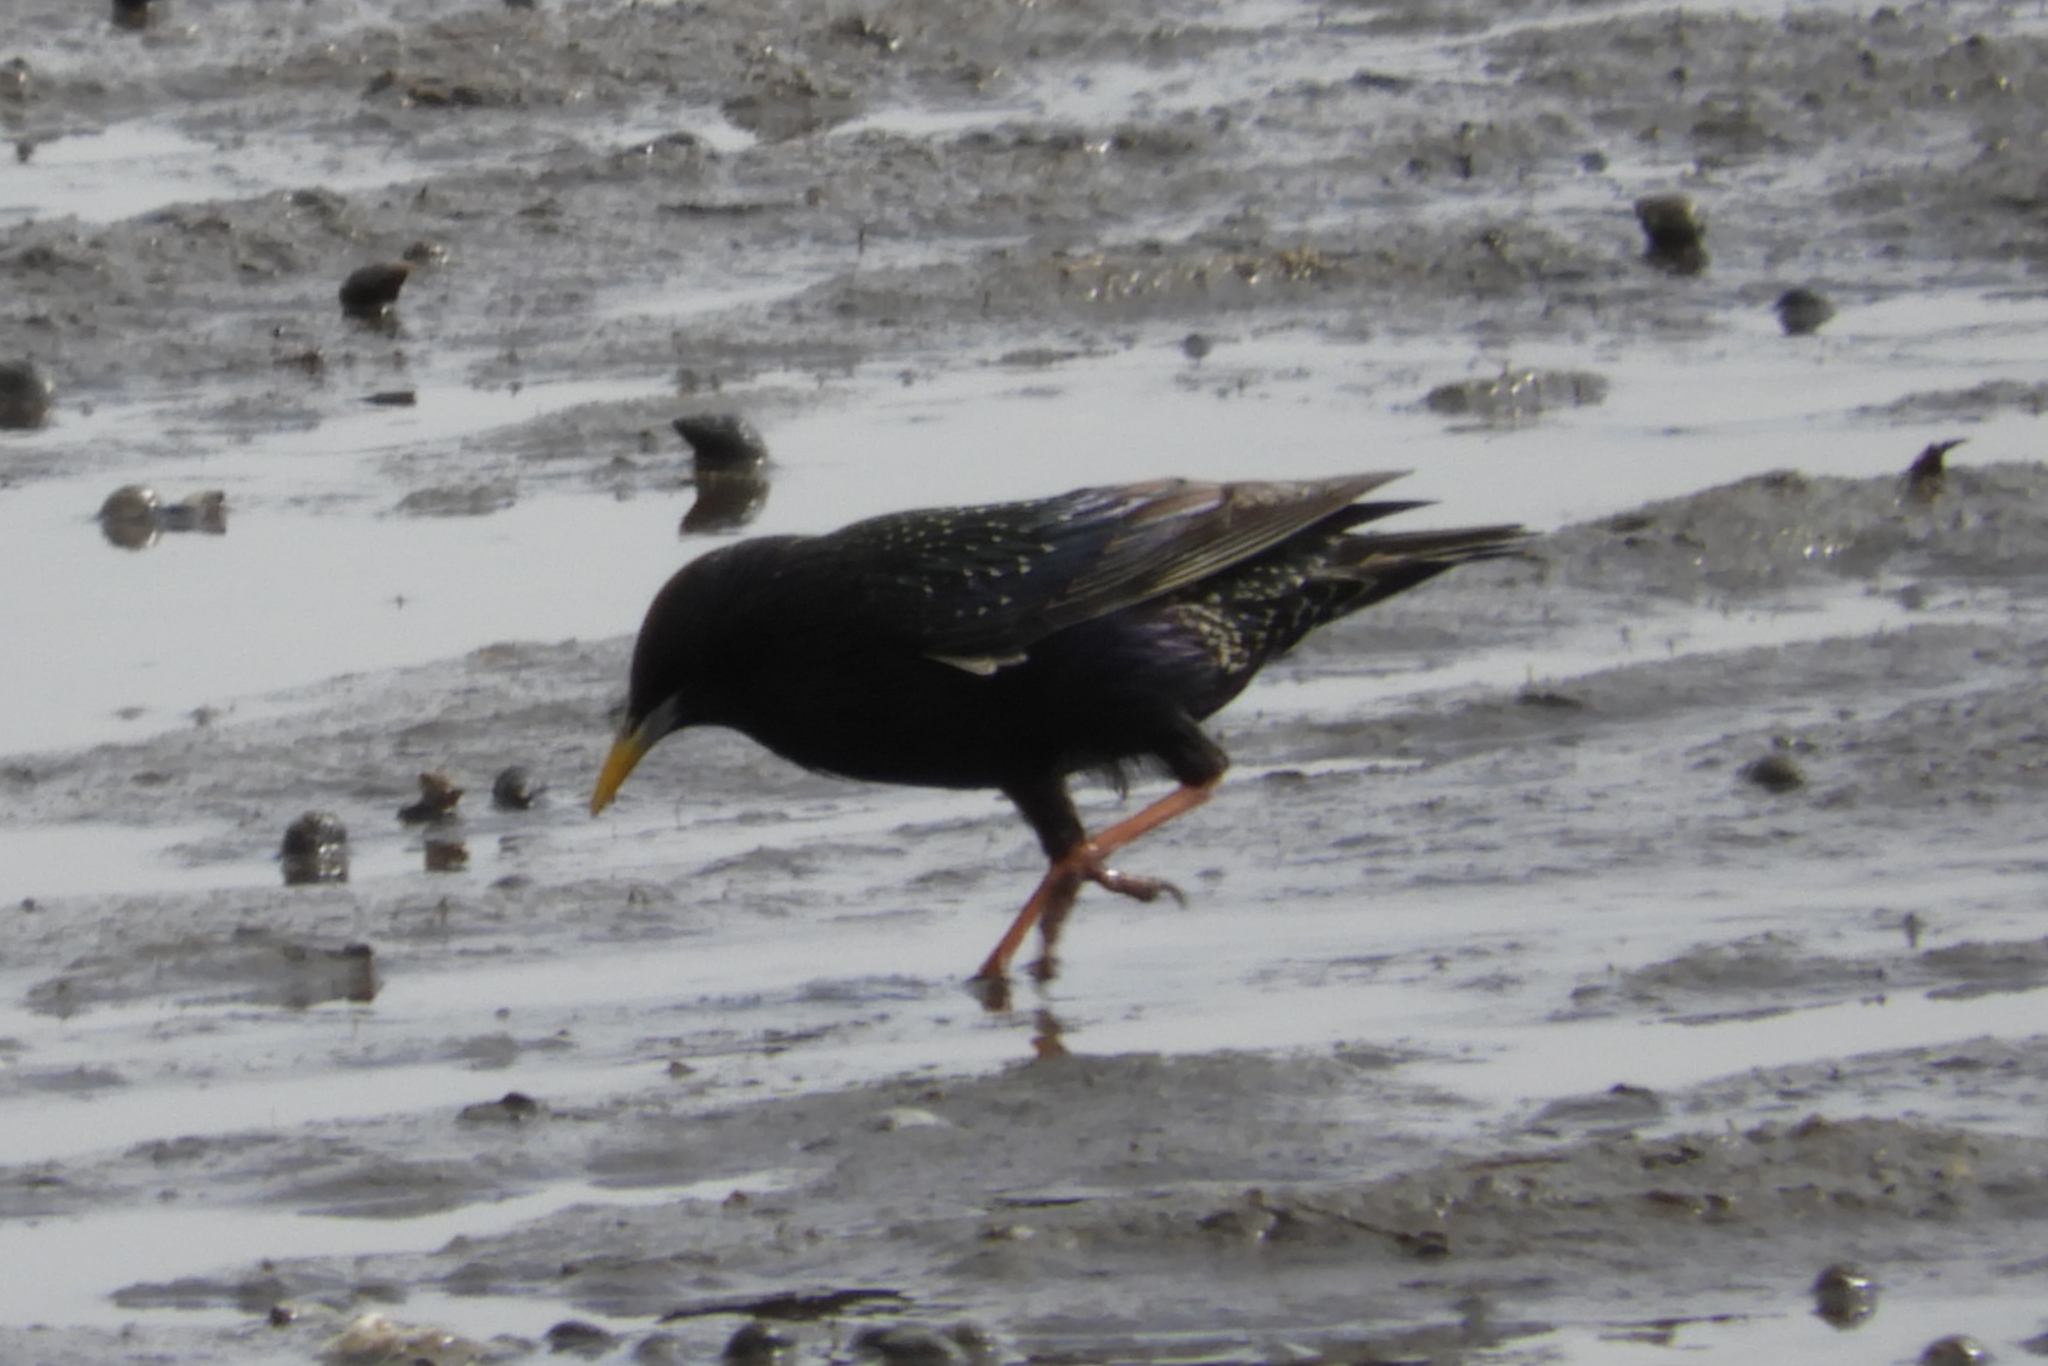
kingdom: Animalia
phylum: Chordata
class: Aves
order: Passeriformes
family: Sturnidae
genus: Sturnus
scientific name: Sturnus vulgaris
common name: Common starling
